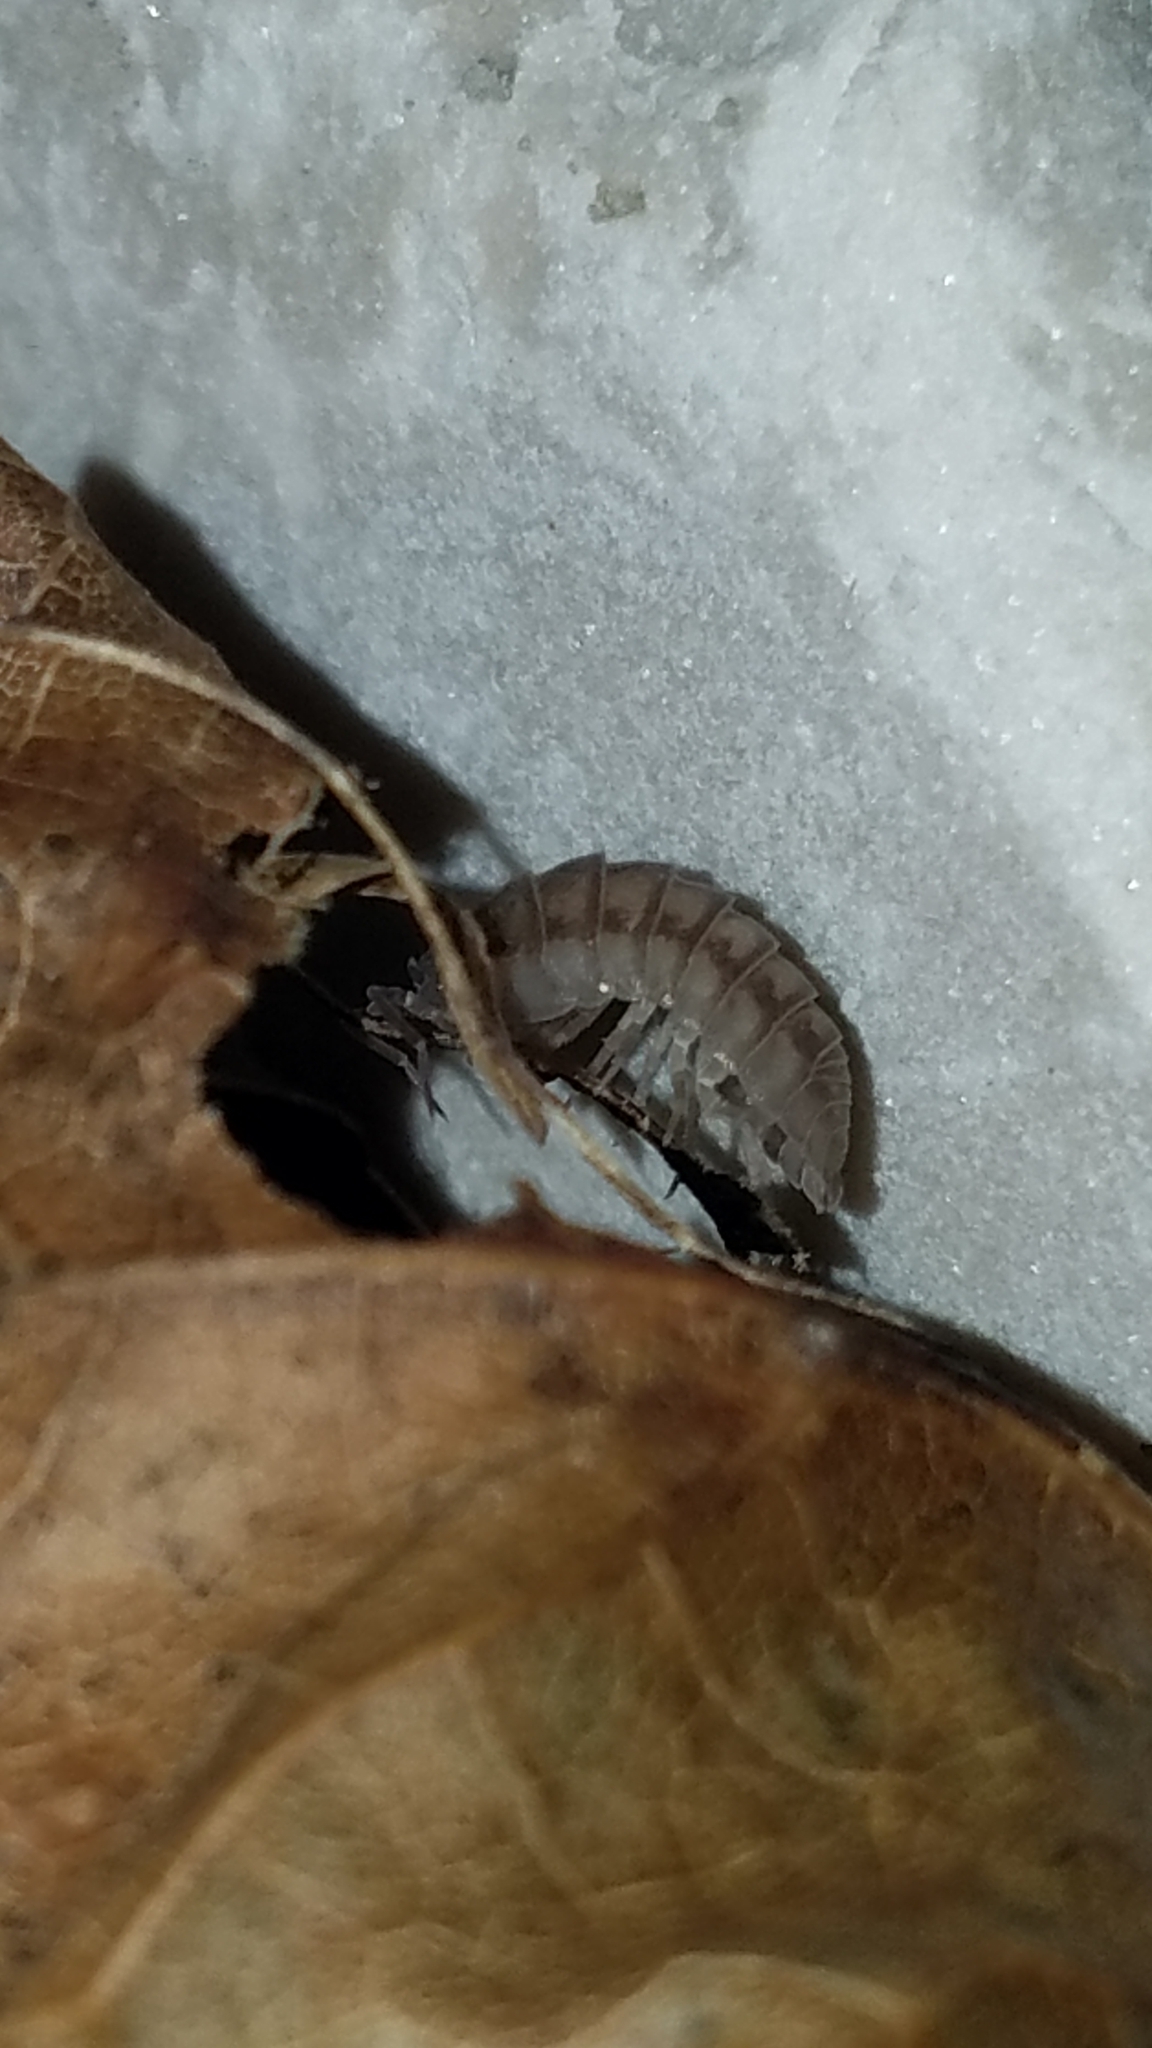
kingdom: Animalia
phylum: Arthropoda
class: Malacostraca
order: Isopoda
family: Armadillidiidae
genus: Armadillidium
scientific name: Armadillidium nasatum
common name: Isopod
